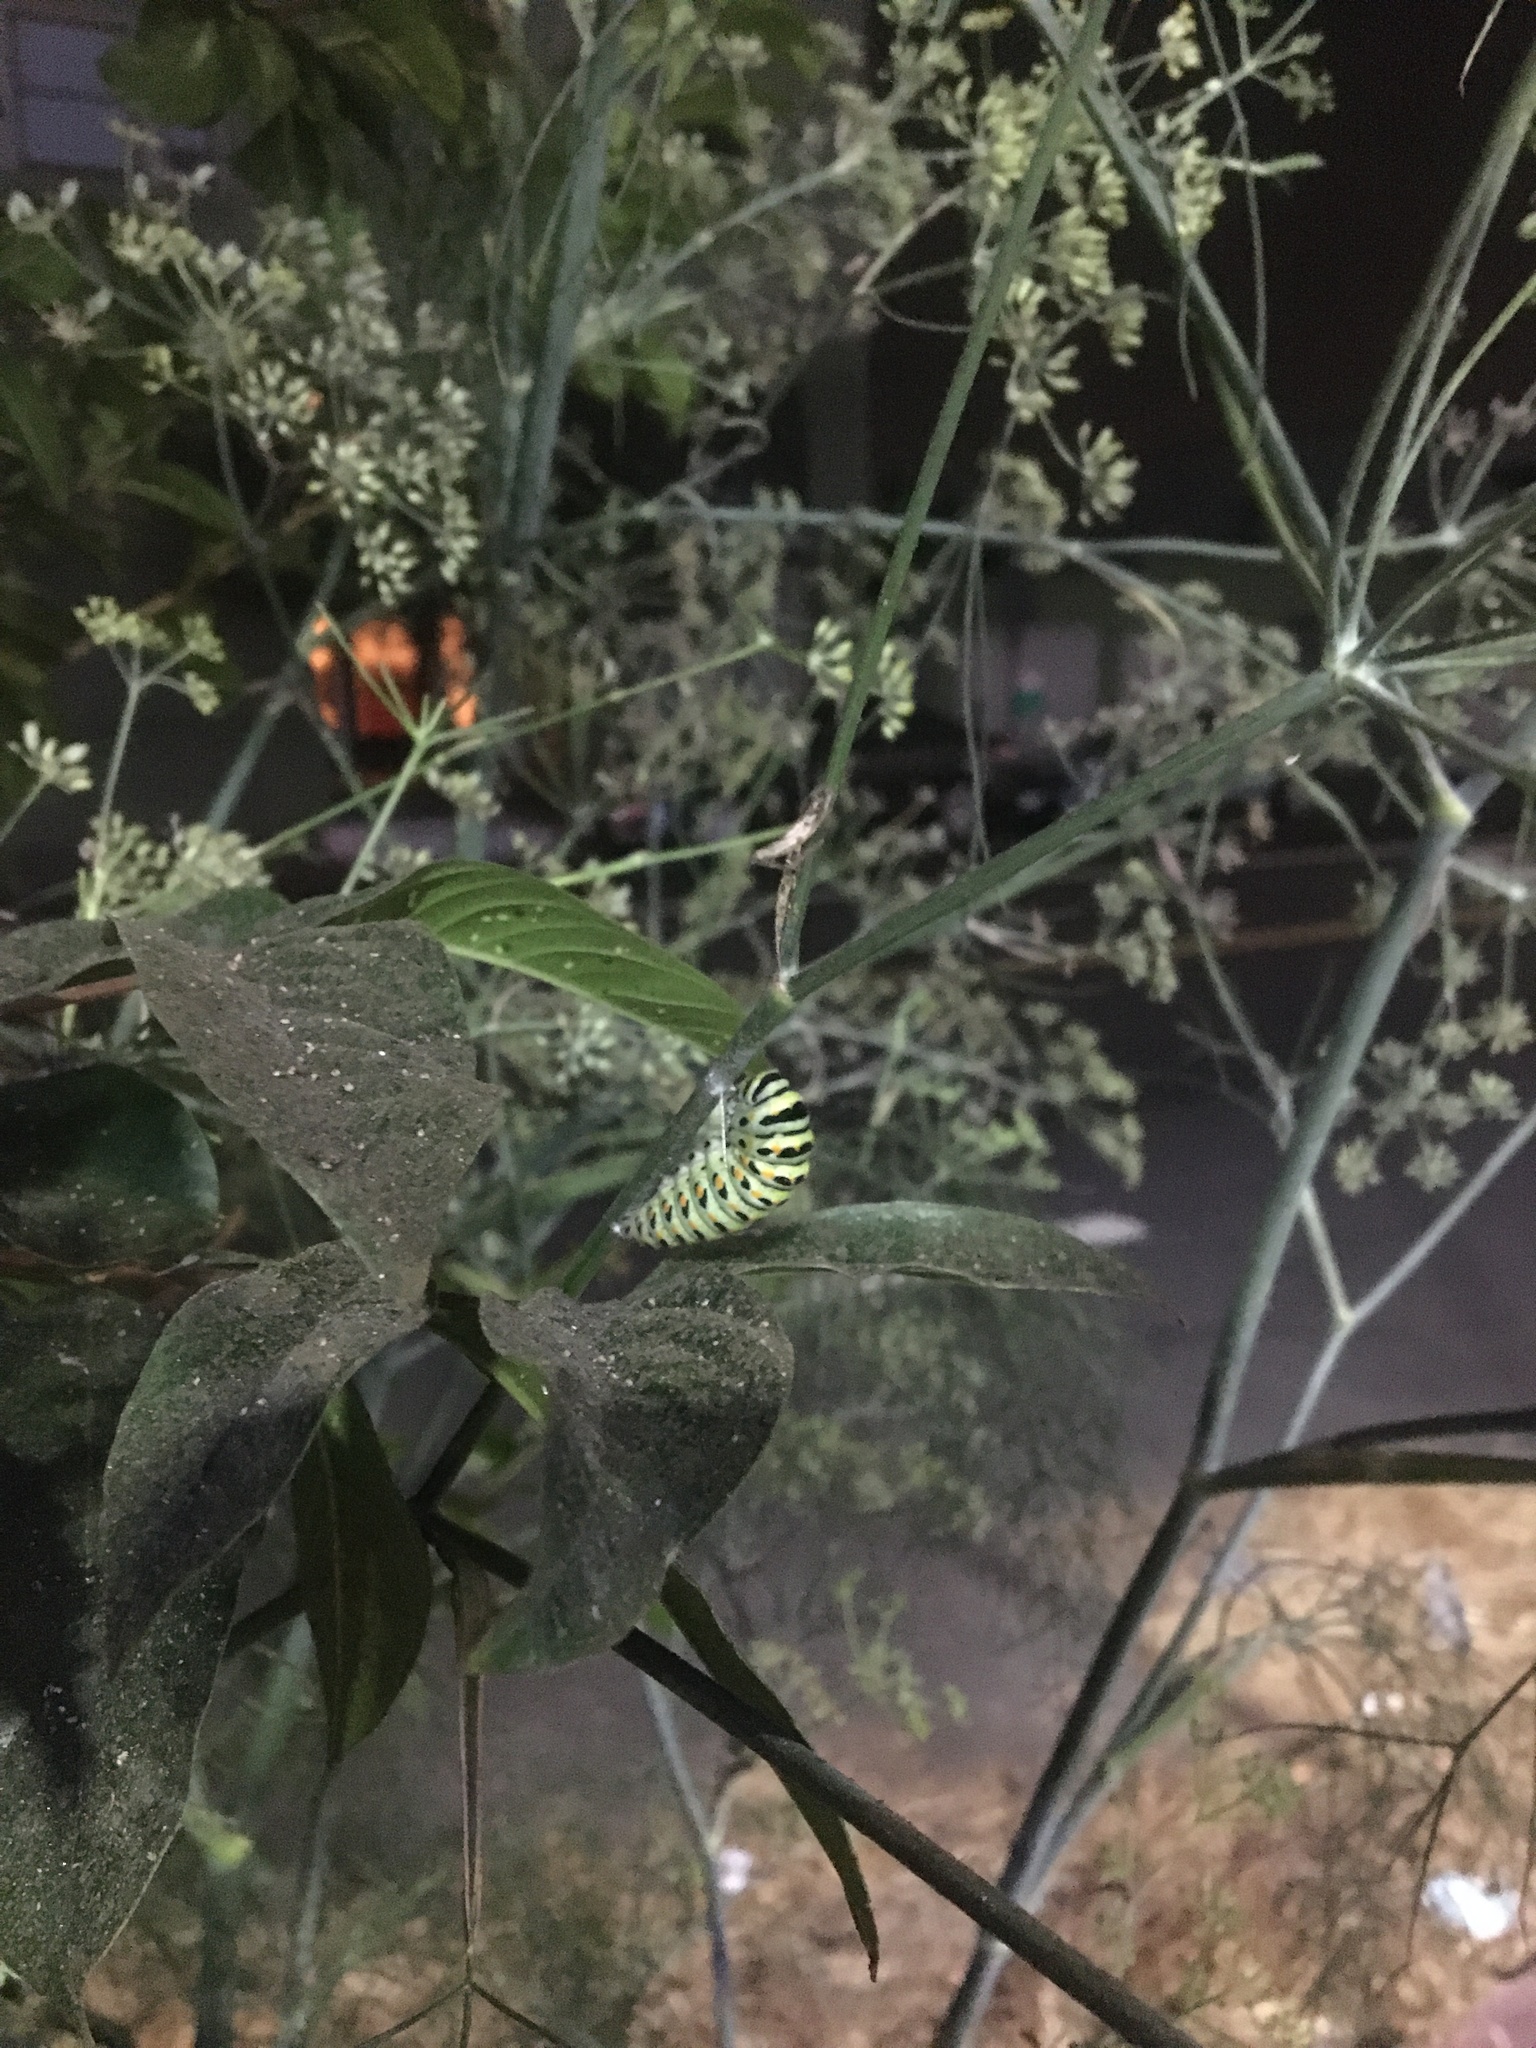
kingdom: Animalia
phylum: Arthropoda
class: Insecta
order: Lepidoptera
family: Papilionidae
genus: Papilio
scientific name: Papilio zelicaon
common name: Anise swallowtail
